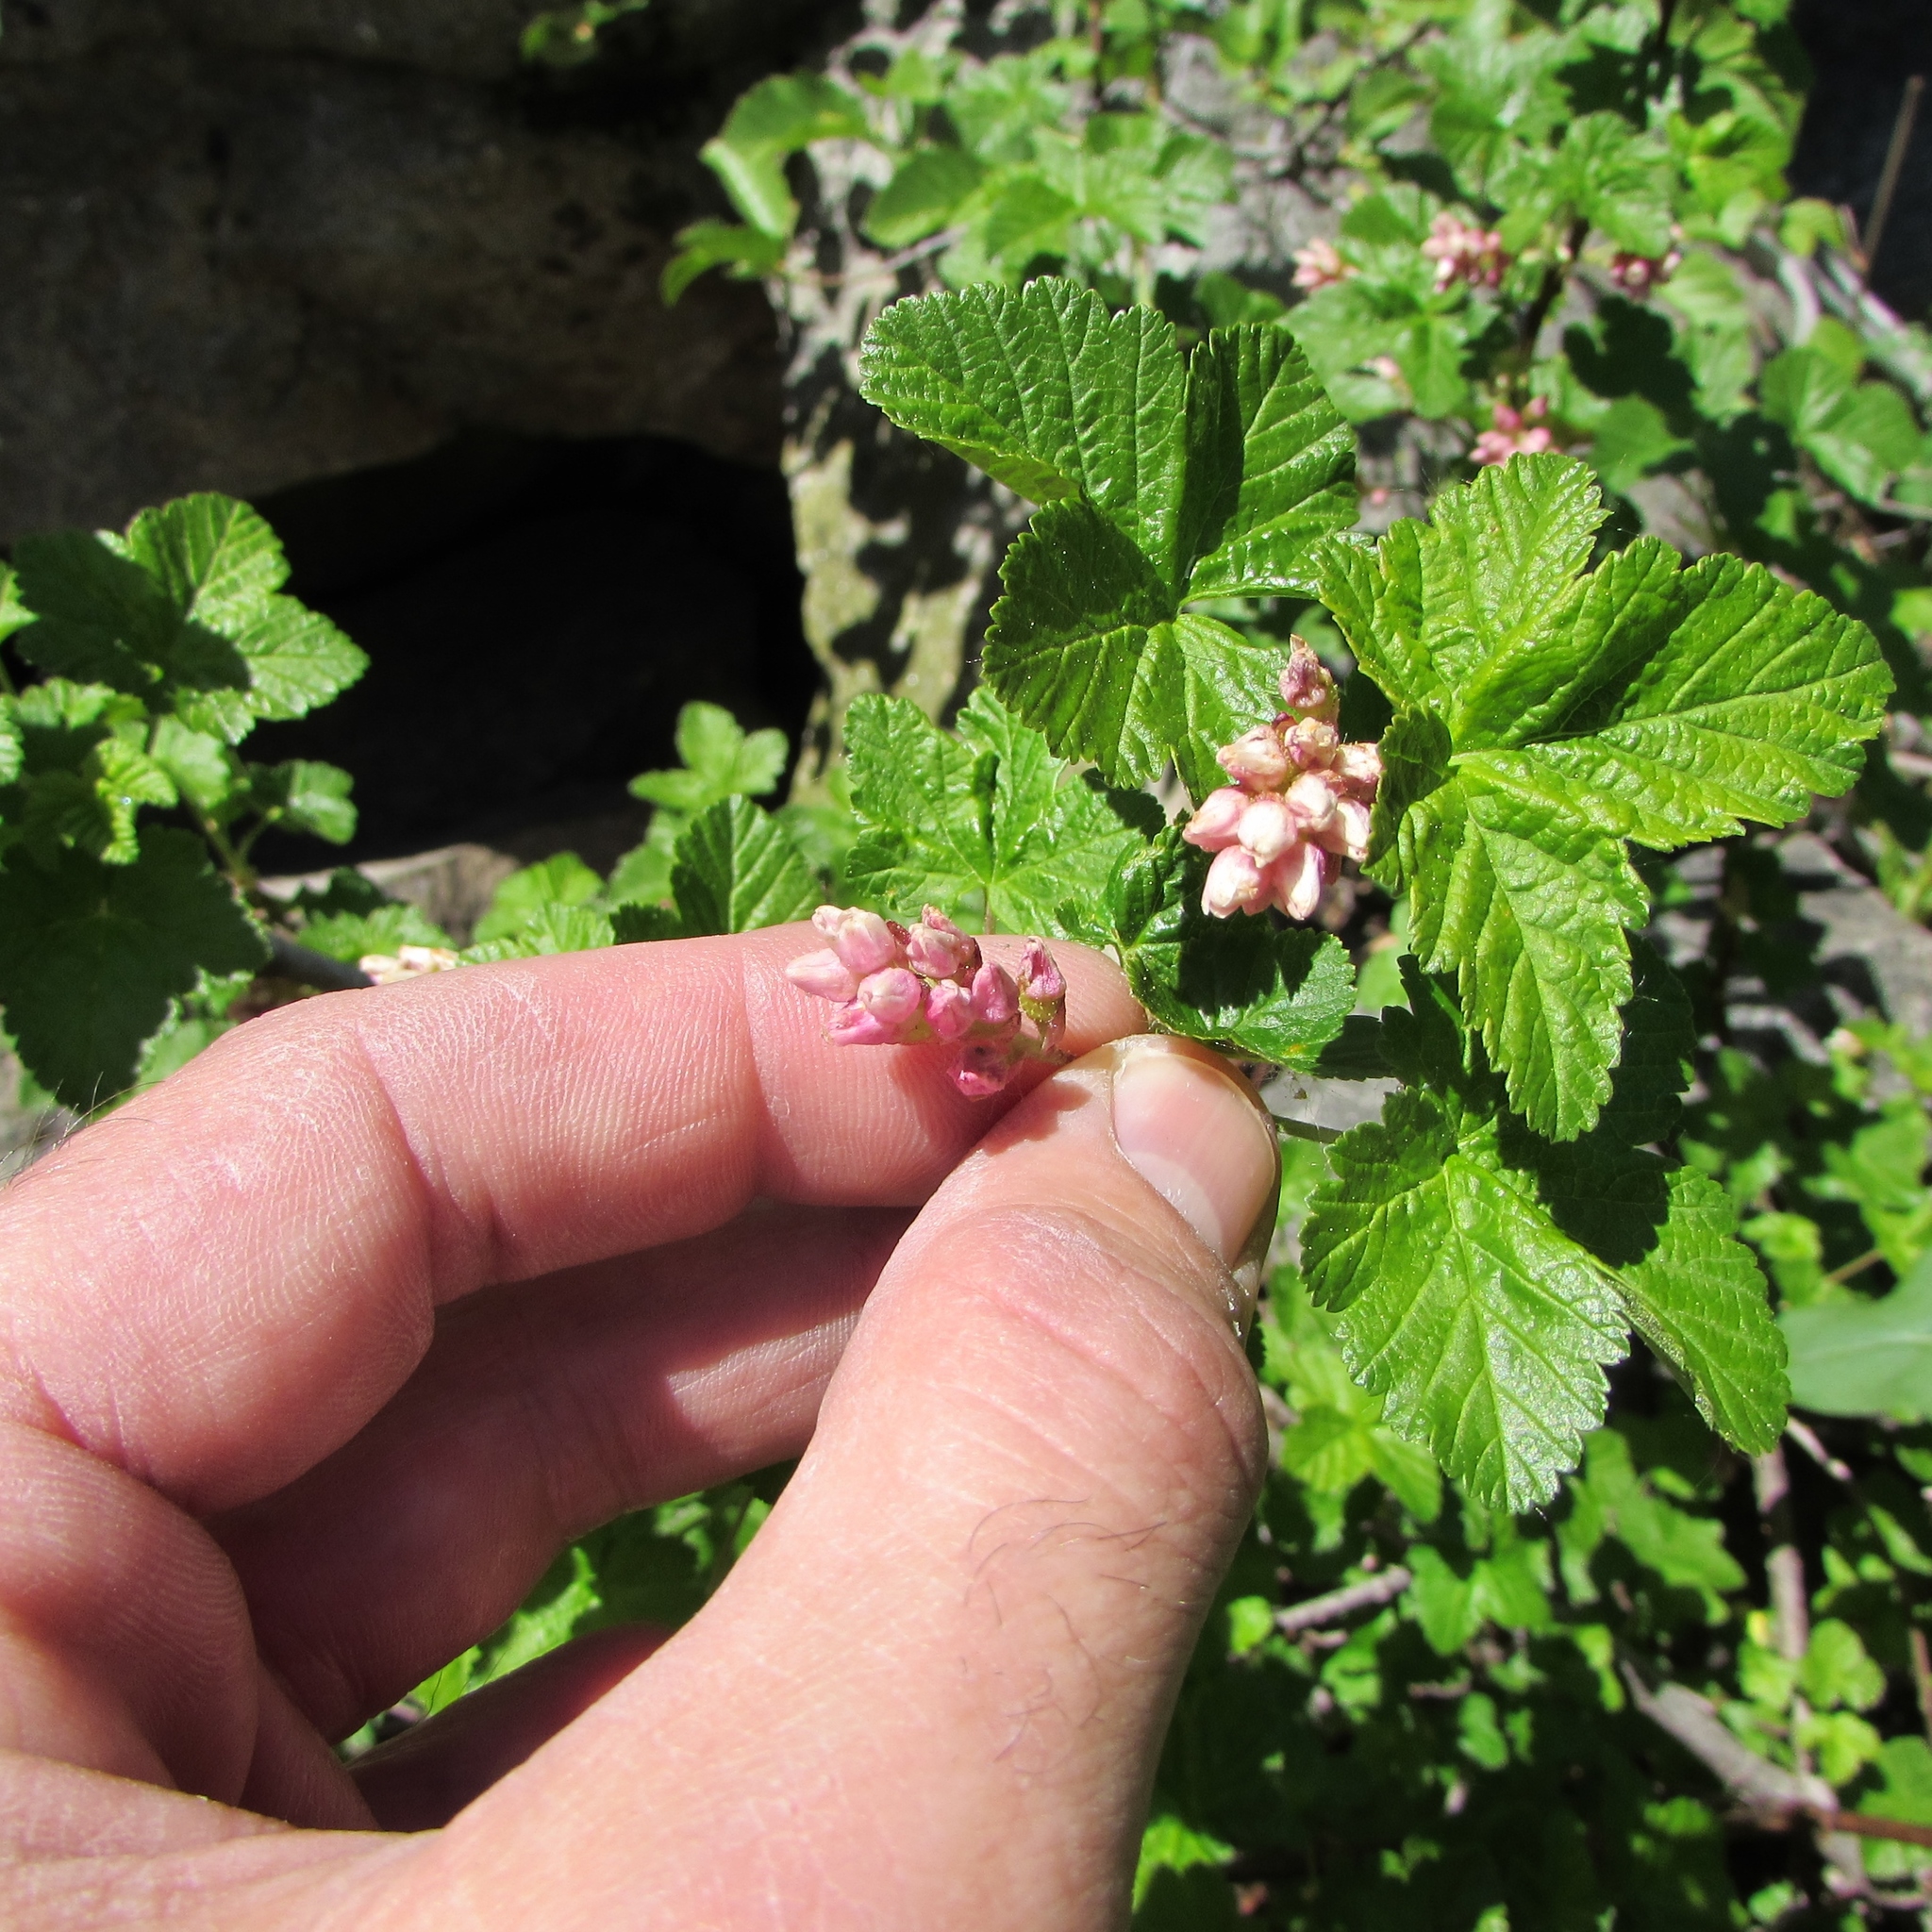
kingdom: Plantae
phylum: Tracheophyta
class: Magnoliopsida
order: Saxifragales
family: Grossulariaceae
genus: Ribes
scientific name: Ribes nevadense
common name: Mountain pink currant
